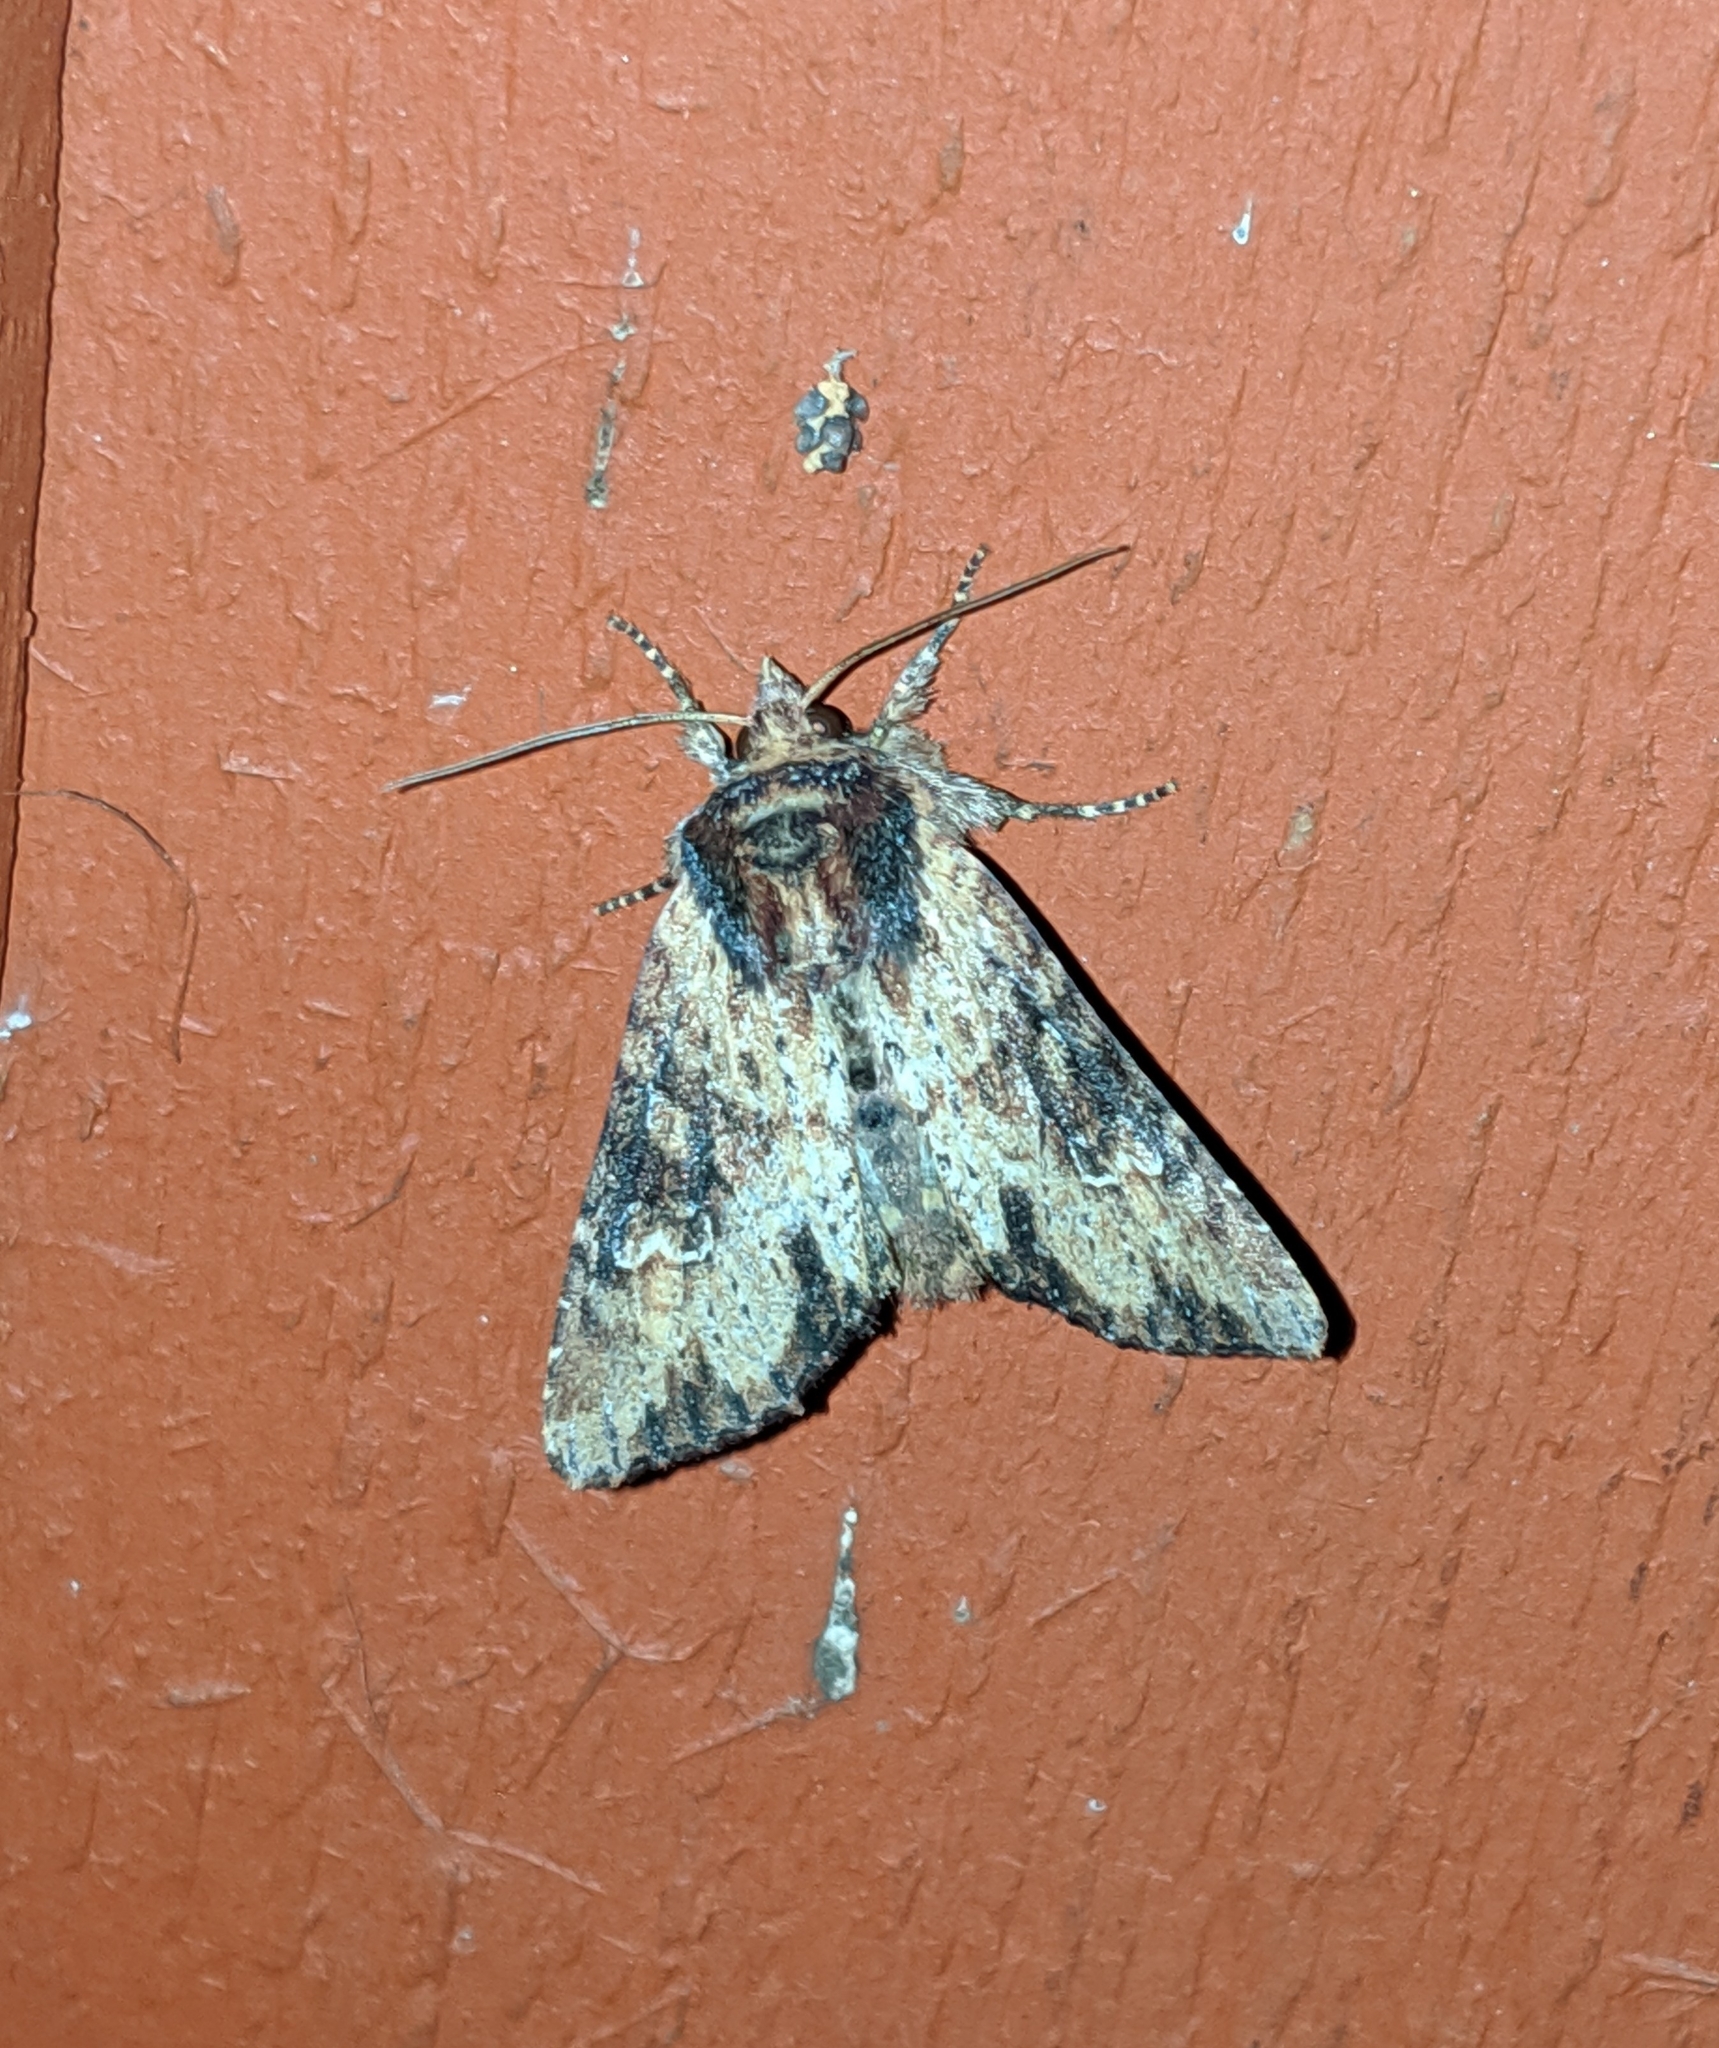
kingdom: Animalia
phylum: Arthropoda
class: Insecta
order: Lepidoptera
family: Noctuidae
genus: Apamea
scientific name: Apamea vultuosa
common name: Airy apamea moth
